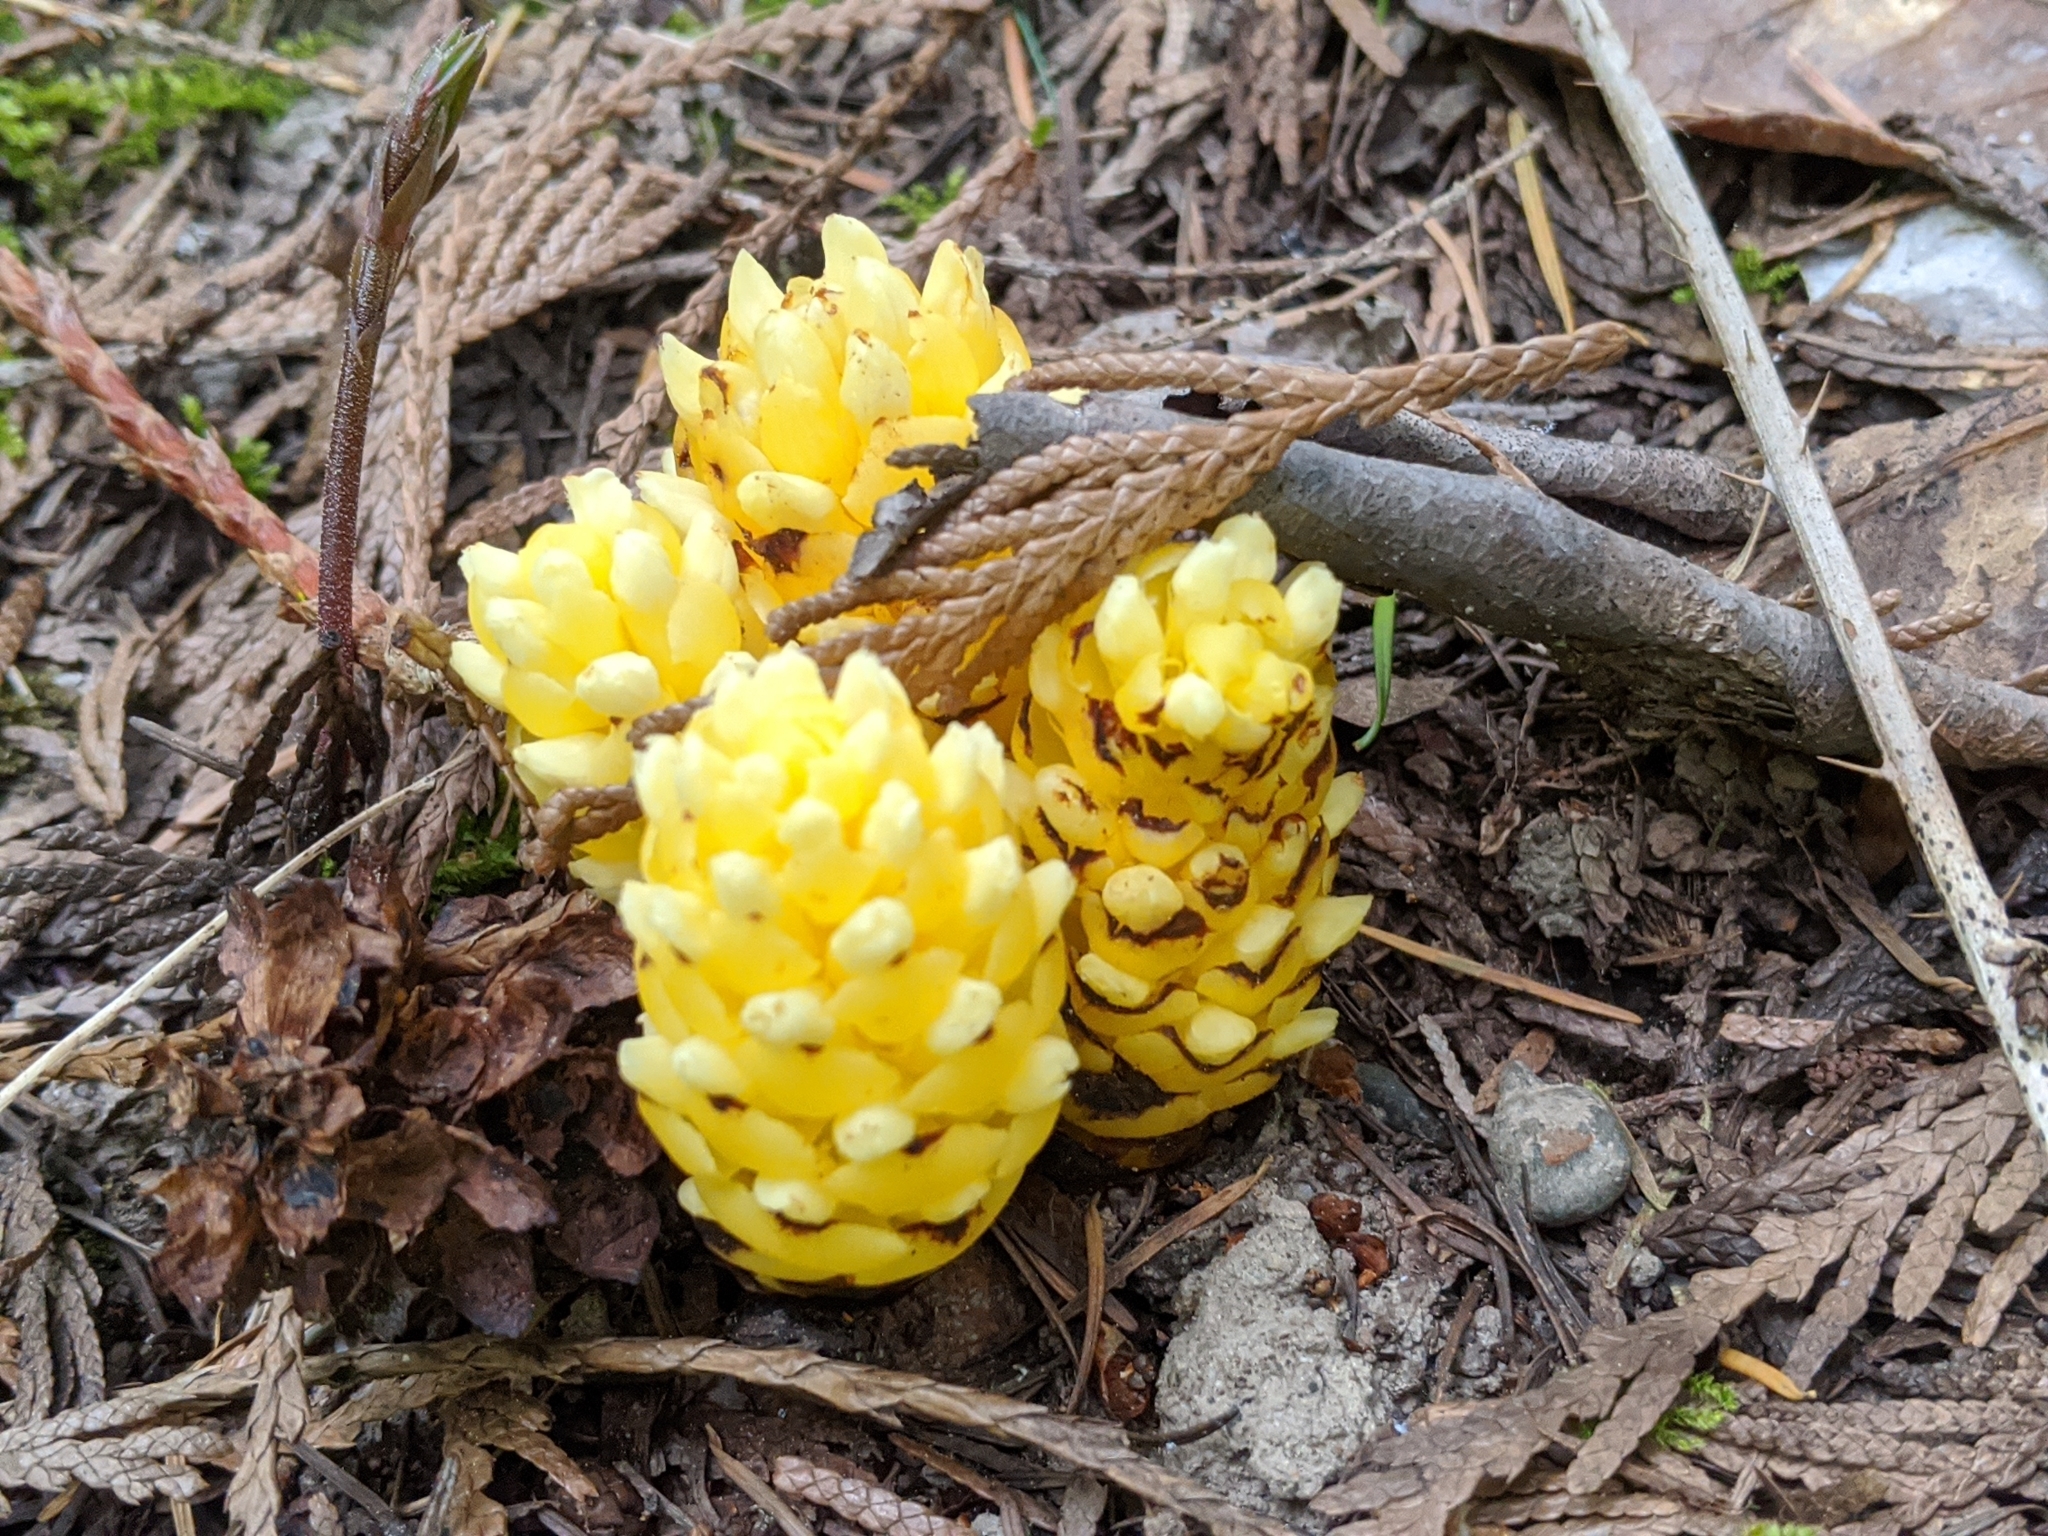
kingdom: Plantae
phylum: Tracheophyta
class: Magnoliopsida
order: Lamiales
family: Orobanchaceae
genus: Kopsiopsis
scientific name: Kopsiopsis hookeri
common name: Hooker's groundcone
